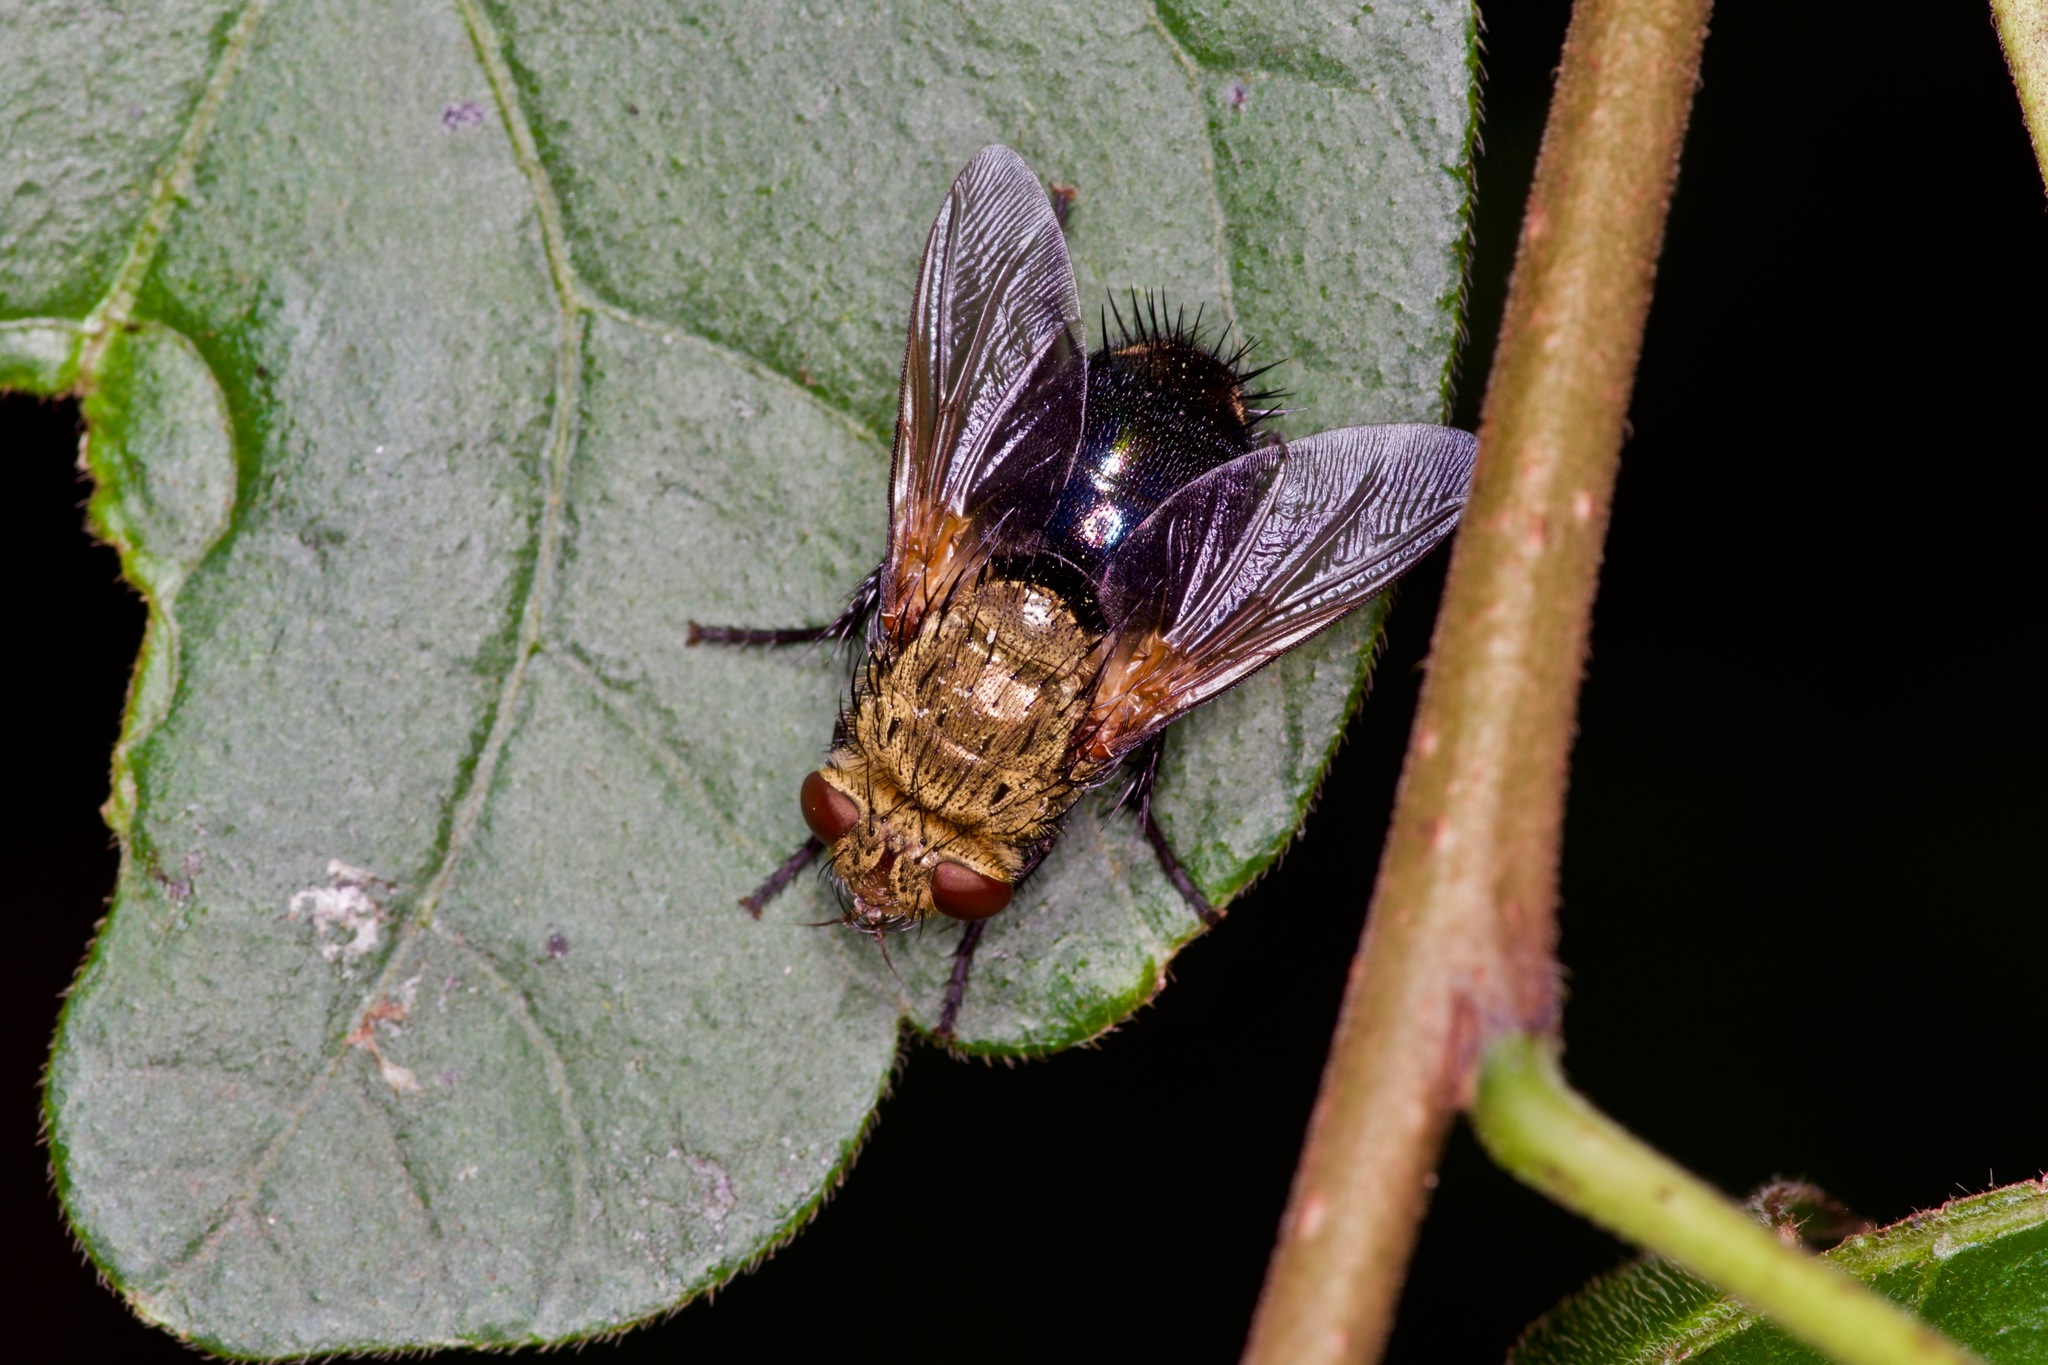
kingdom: Animalia
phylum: Arthropoda
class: Insecta
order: Diptera
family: Tachinidae
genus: Archytas
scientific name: Archytas
